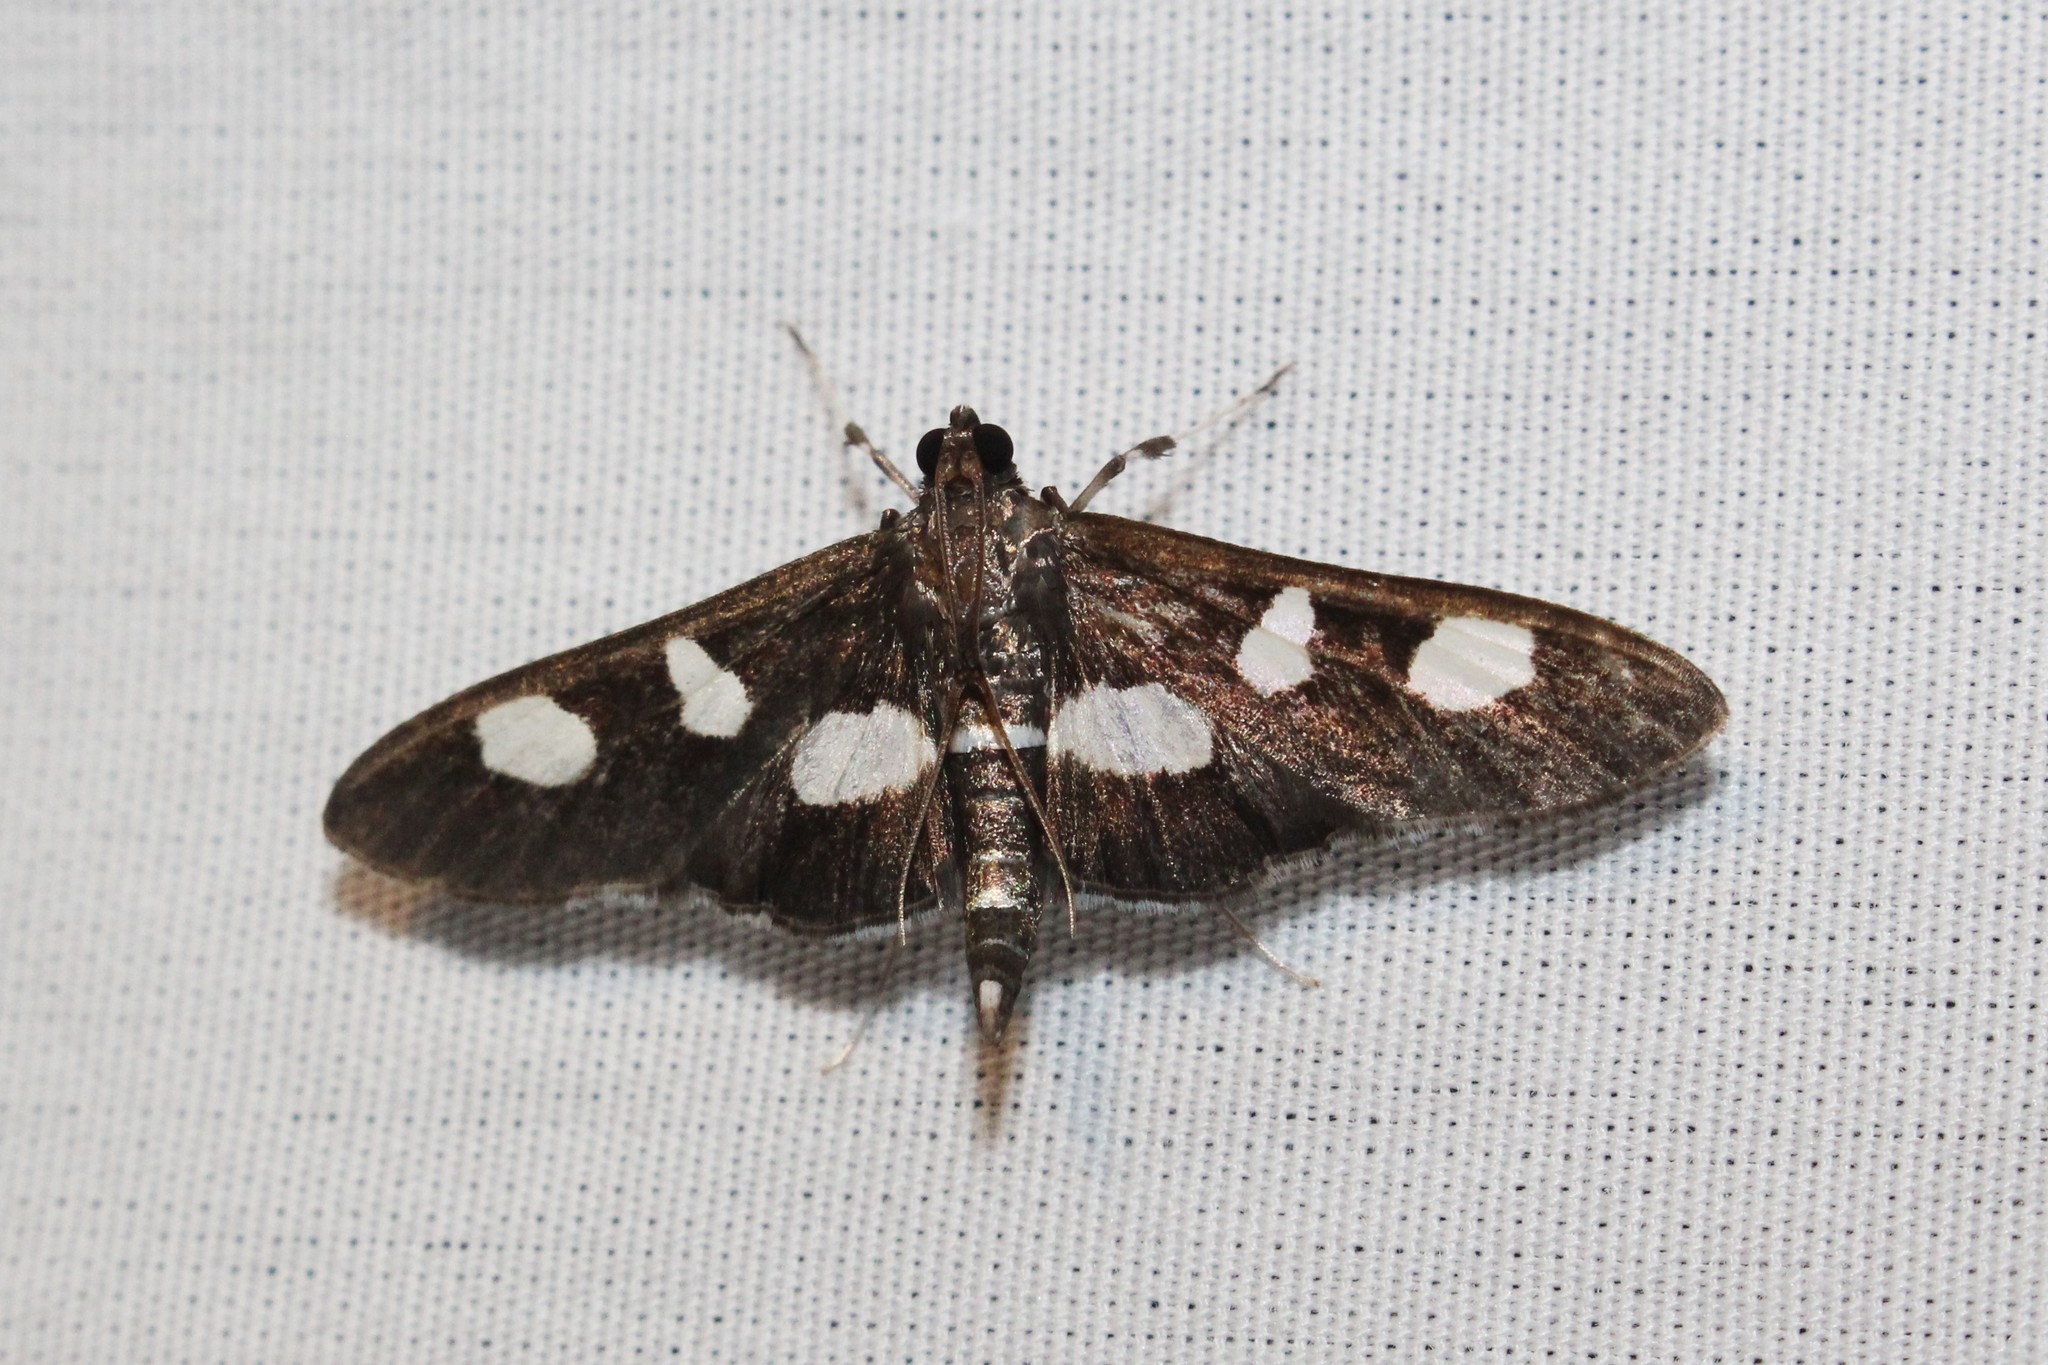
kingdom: Animalia
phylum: Arthropoda
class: Insecta
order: Lepidoptera
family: Crambidae
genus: Desmia
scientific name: Desmia funeralis
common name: Grape leaf folder moth
